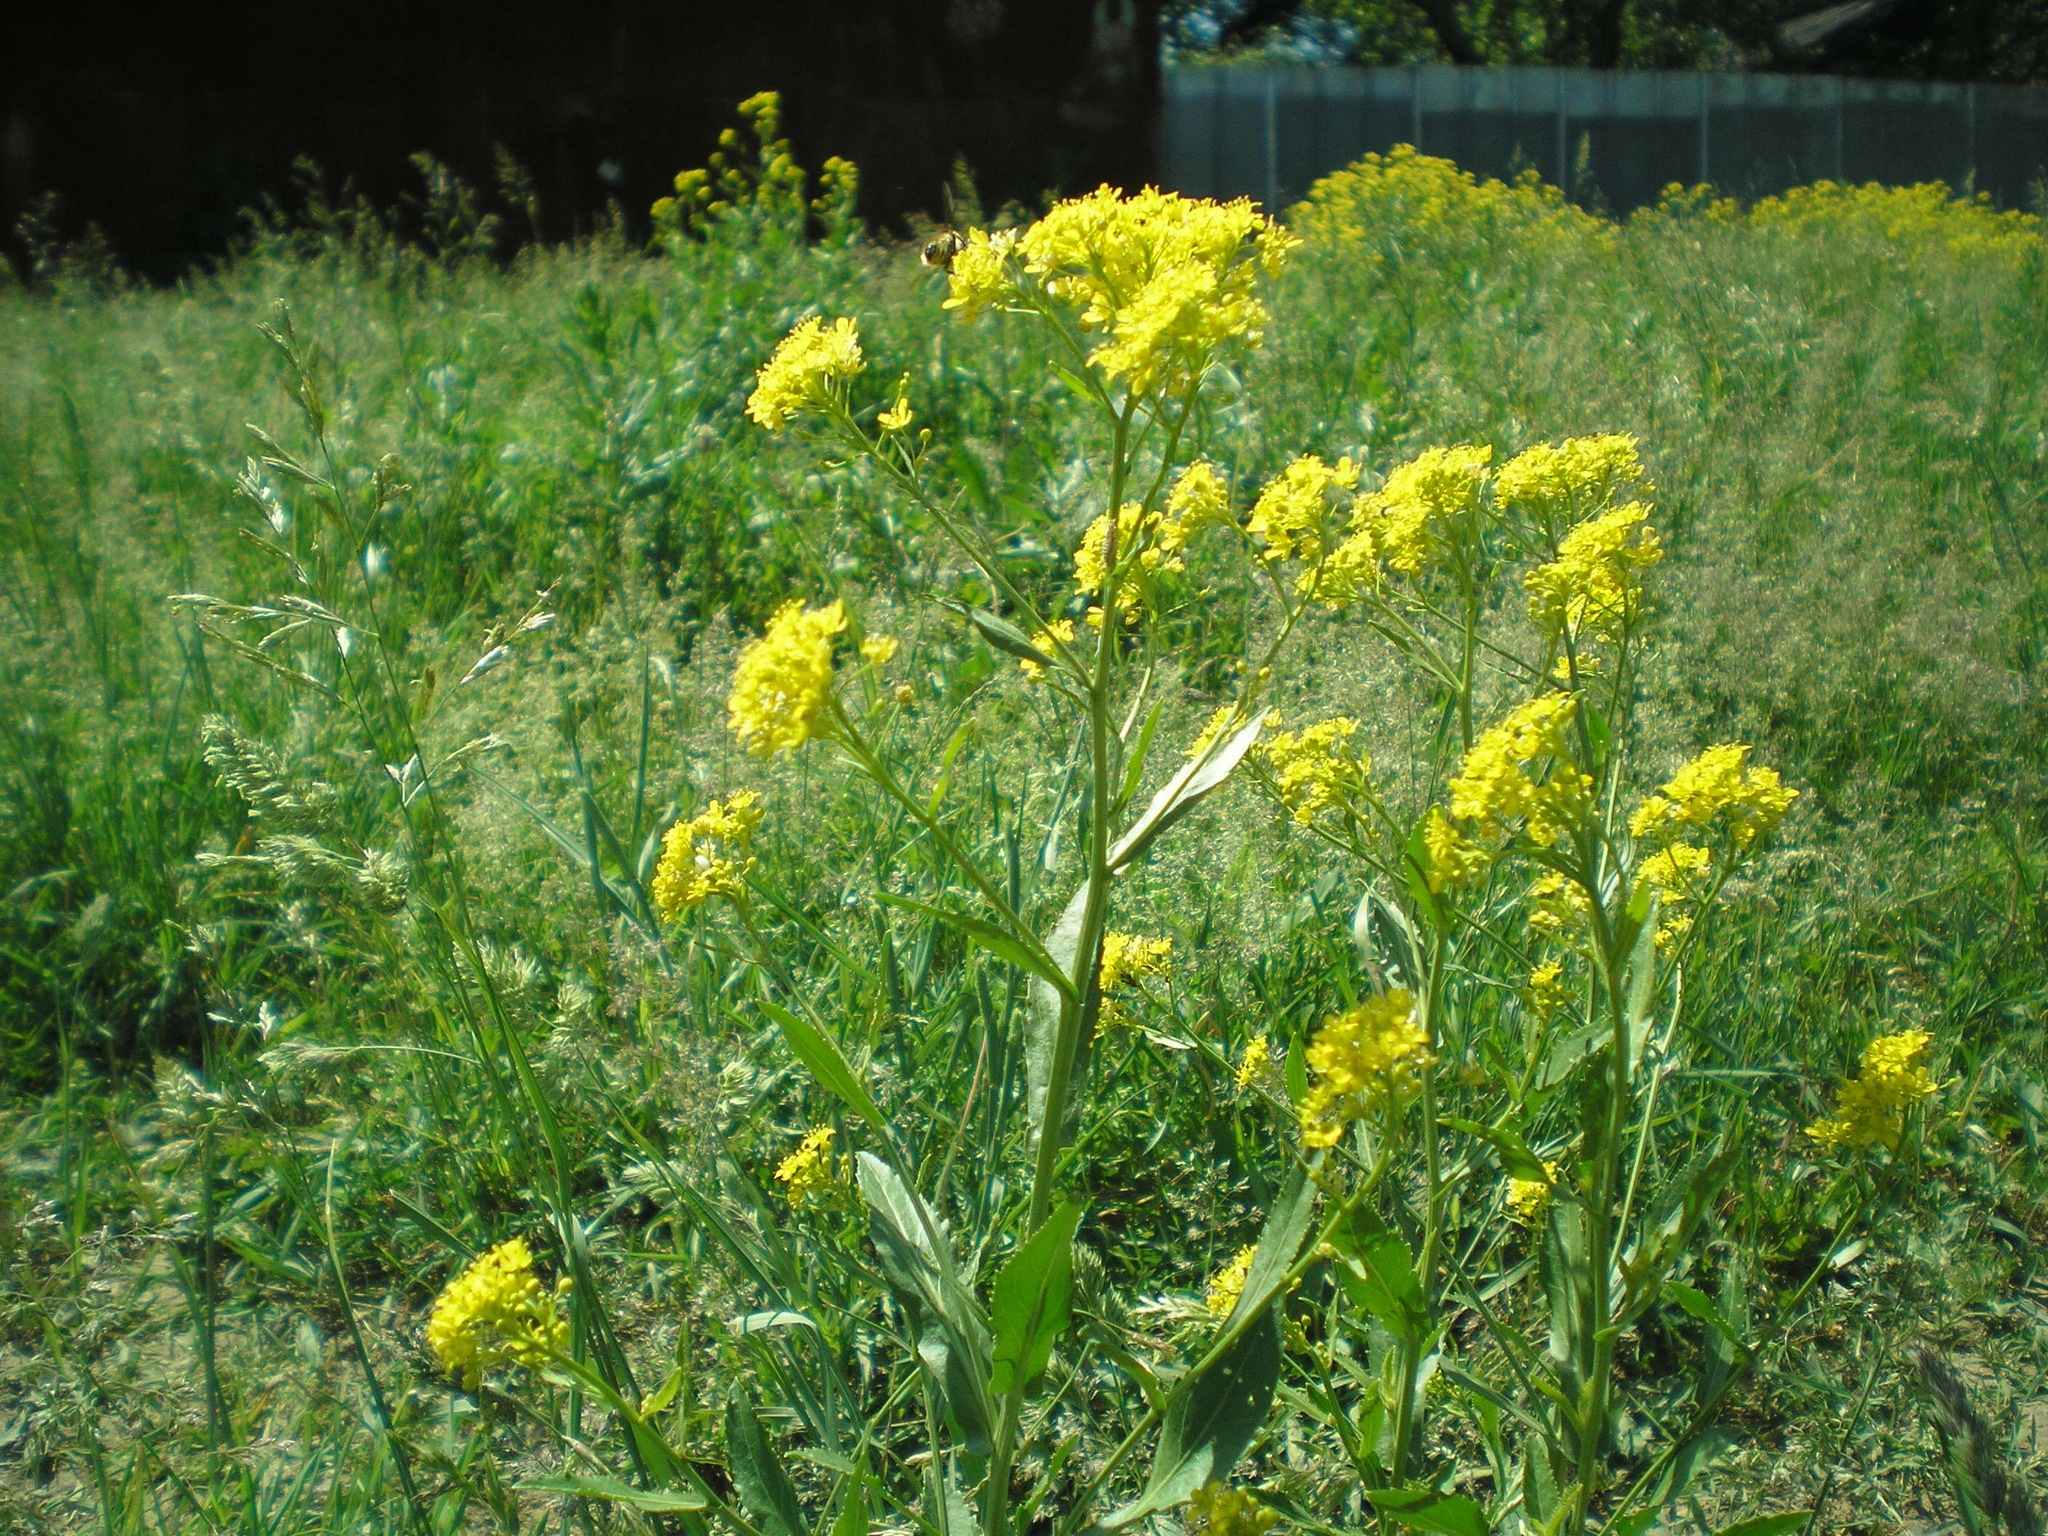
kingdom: Plantae
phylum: Tracheophyta
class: Magnoliopsida
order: Brassicales
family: Brassicaceae
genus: Rorippa
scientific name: Rorippa austriaca
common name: Austrian yellow-cress
